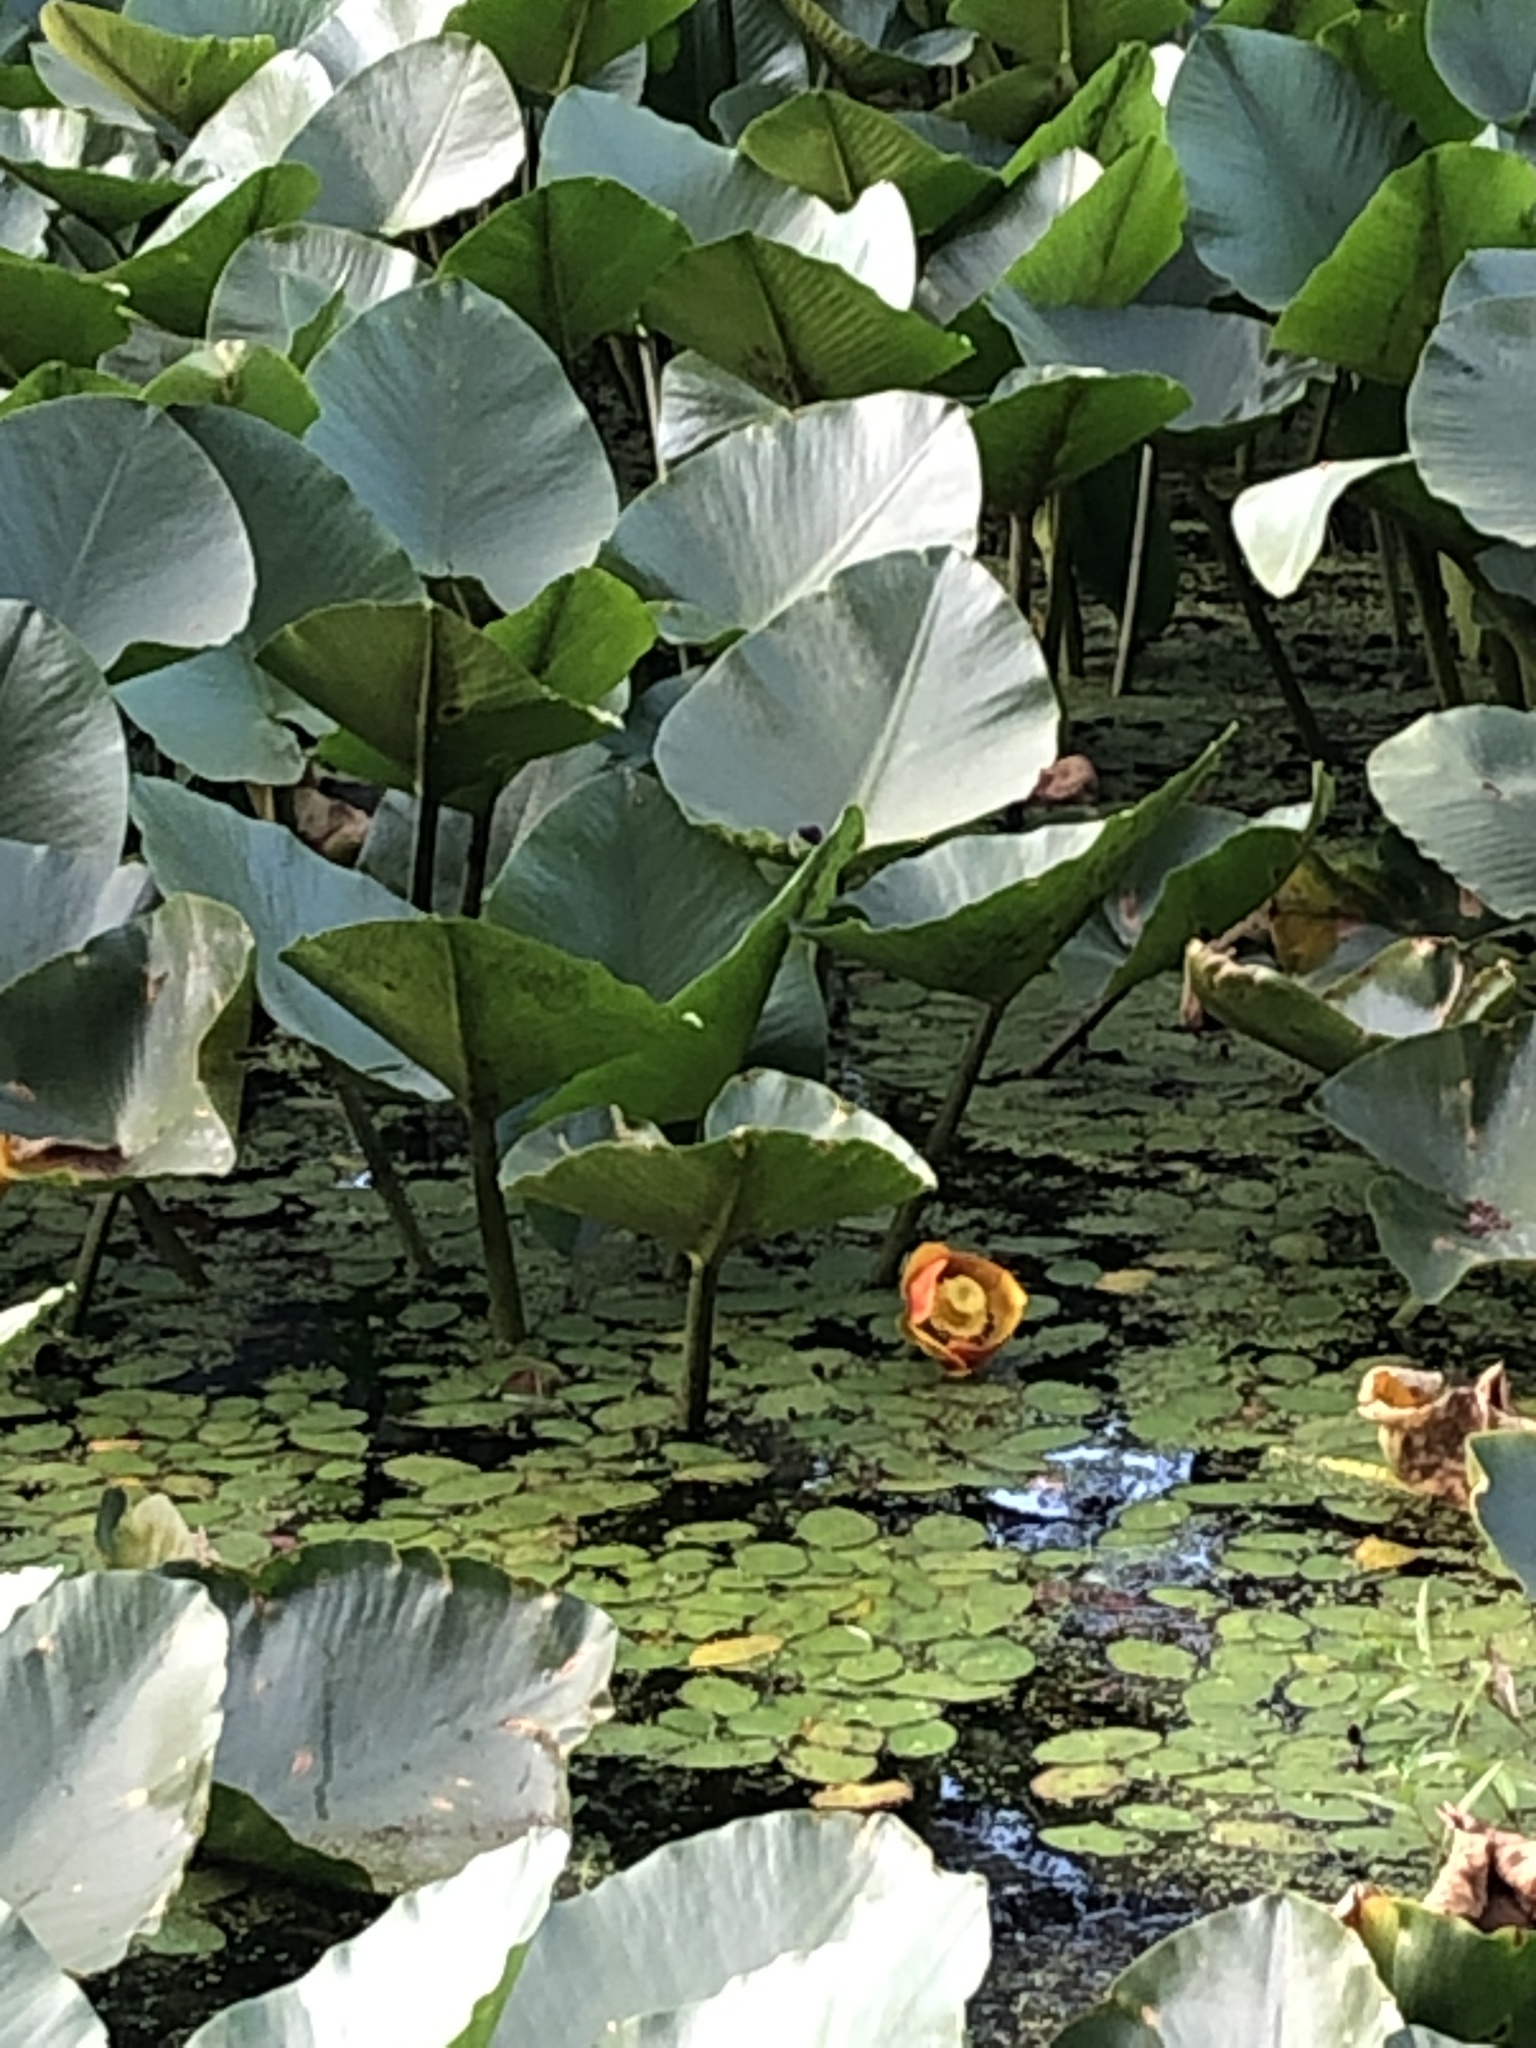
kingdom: Plantae
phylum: Tracheophyta
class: Magnoliopsida
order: Nymphaeales
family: Nymphaeaceae
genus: Nuphar
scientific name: Nuphar polysepala
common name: Rocky mountain cow-lily
